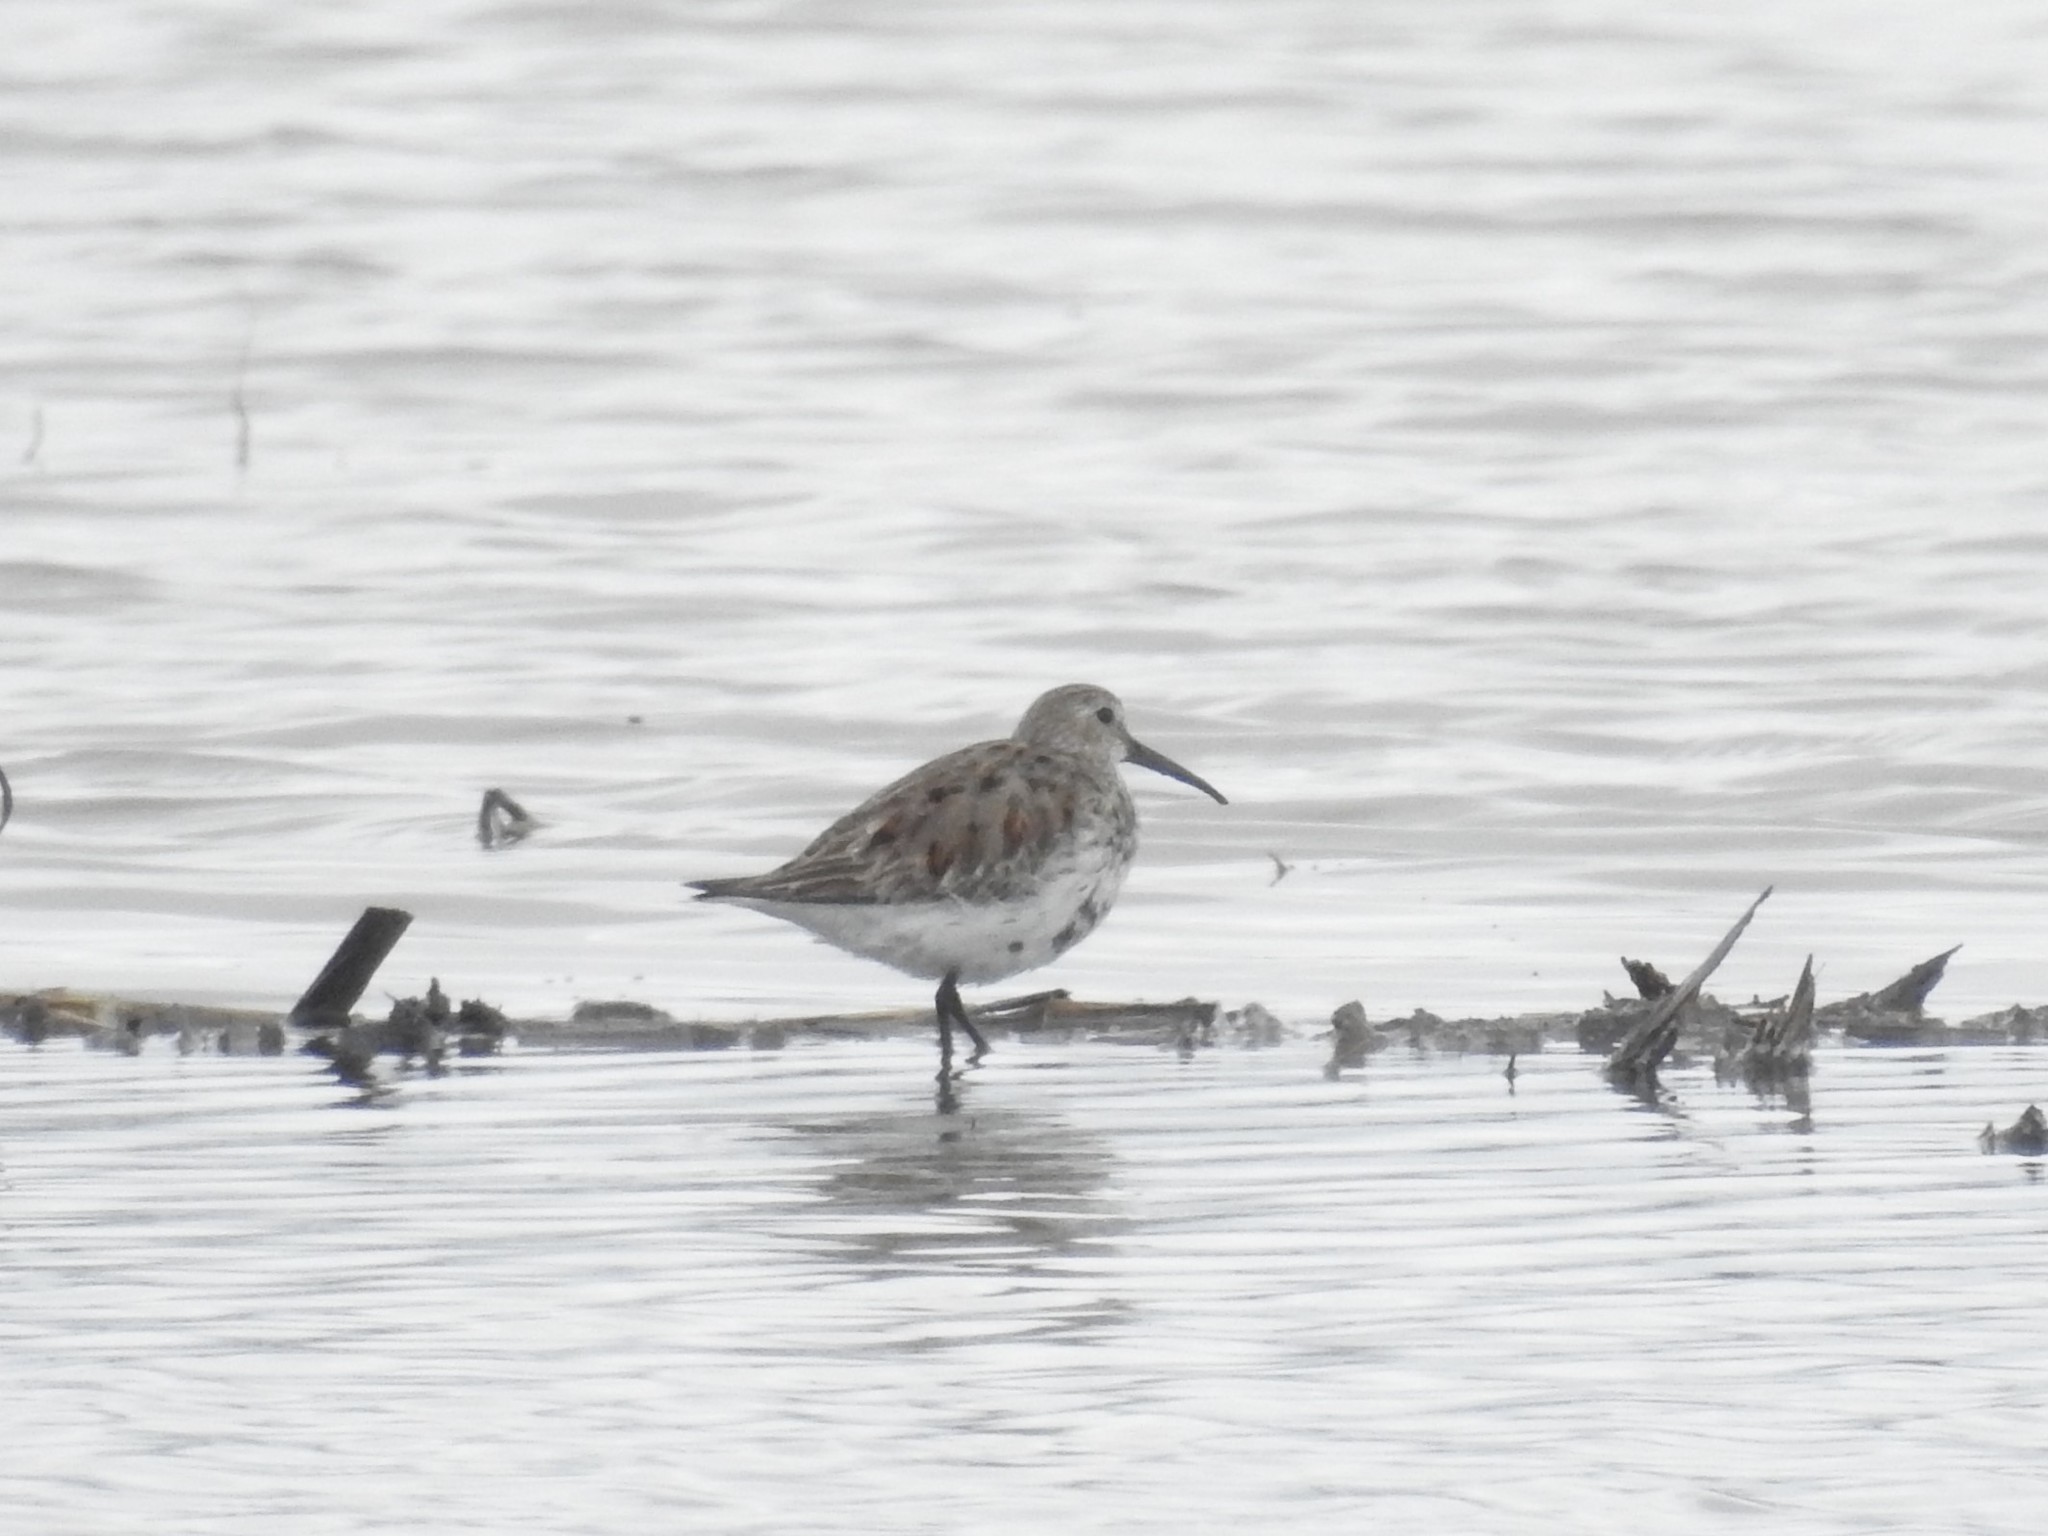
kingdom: Animalia
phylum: Chordata
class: Aves
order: Charadriiformes
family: Scolopacidae
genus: Calidris
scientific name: Calidris alpina
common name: Dunlin
